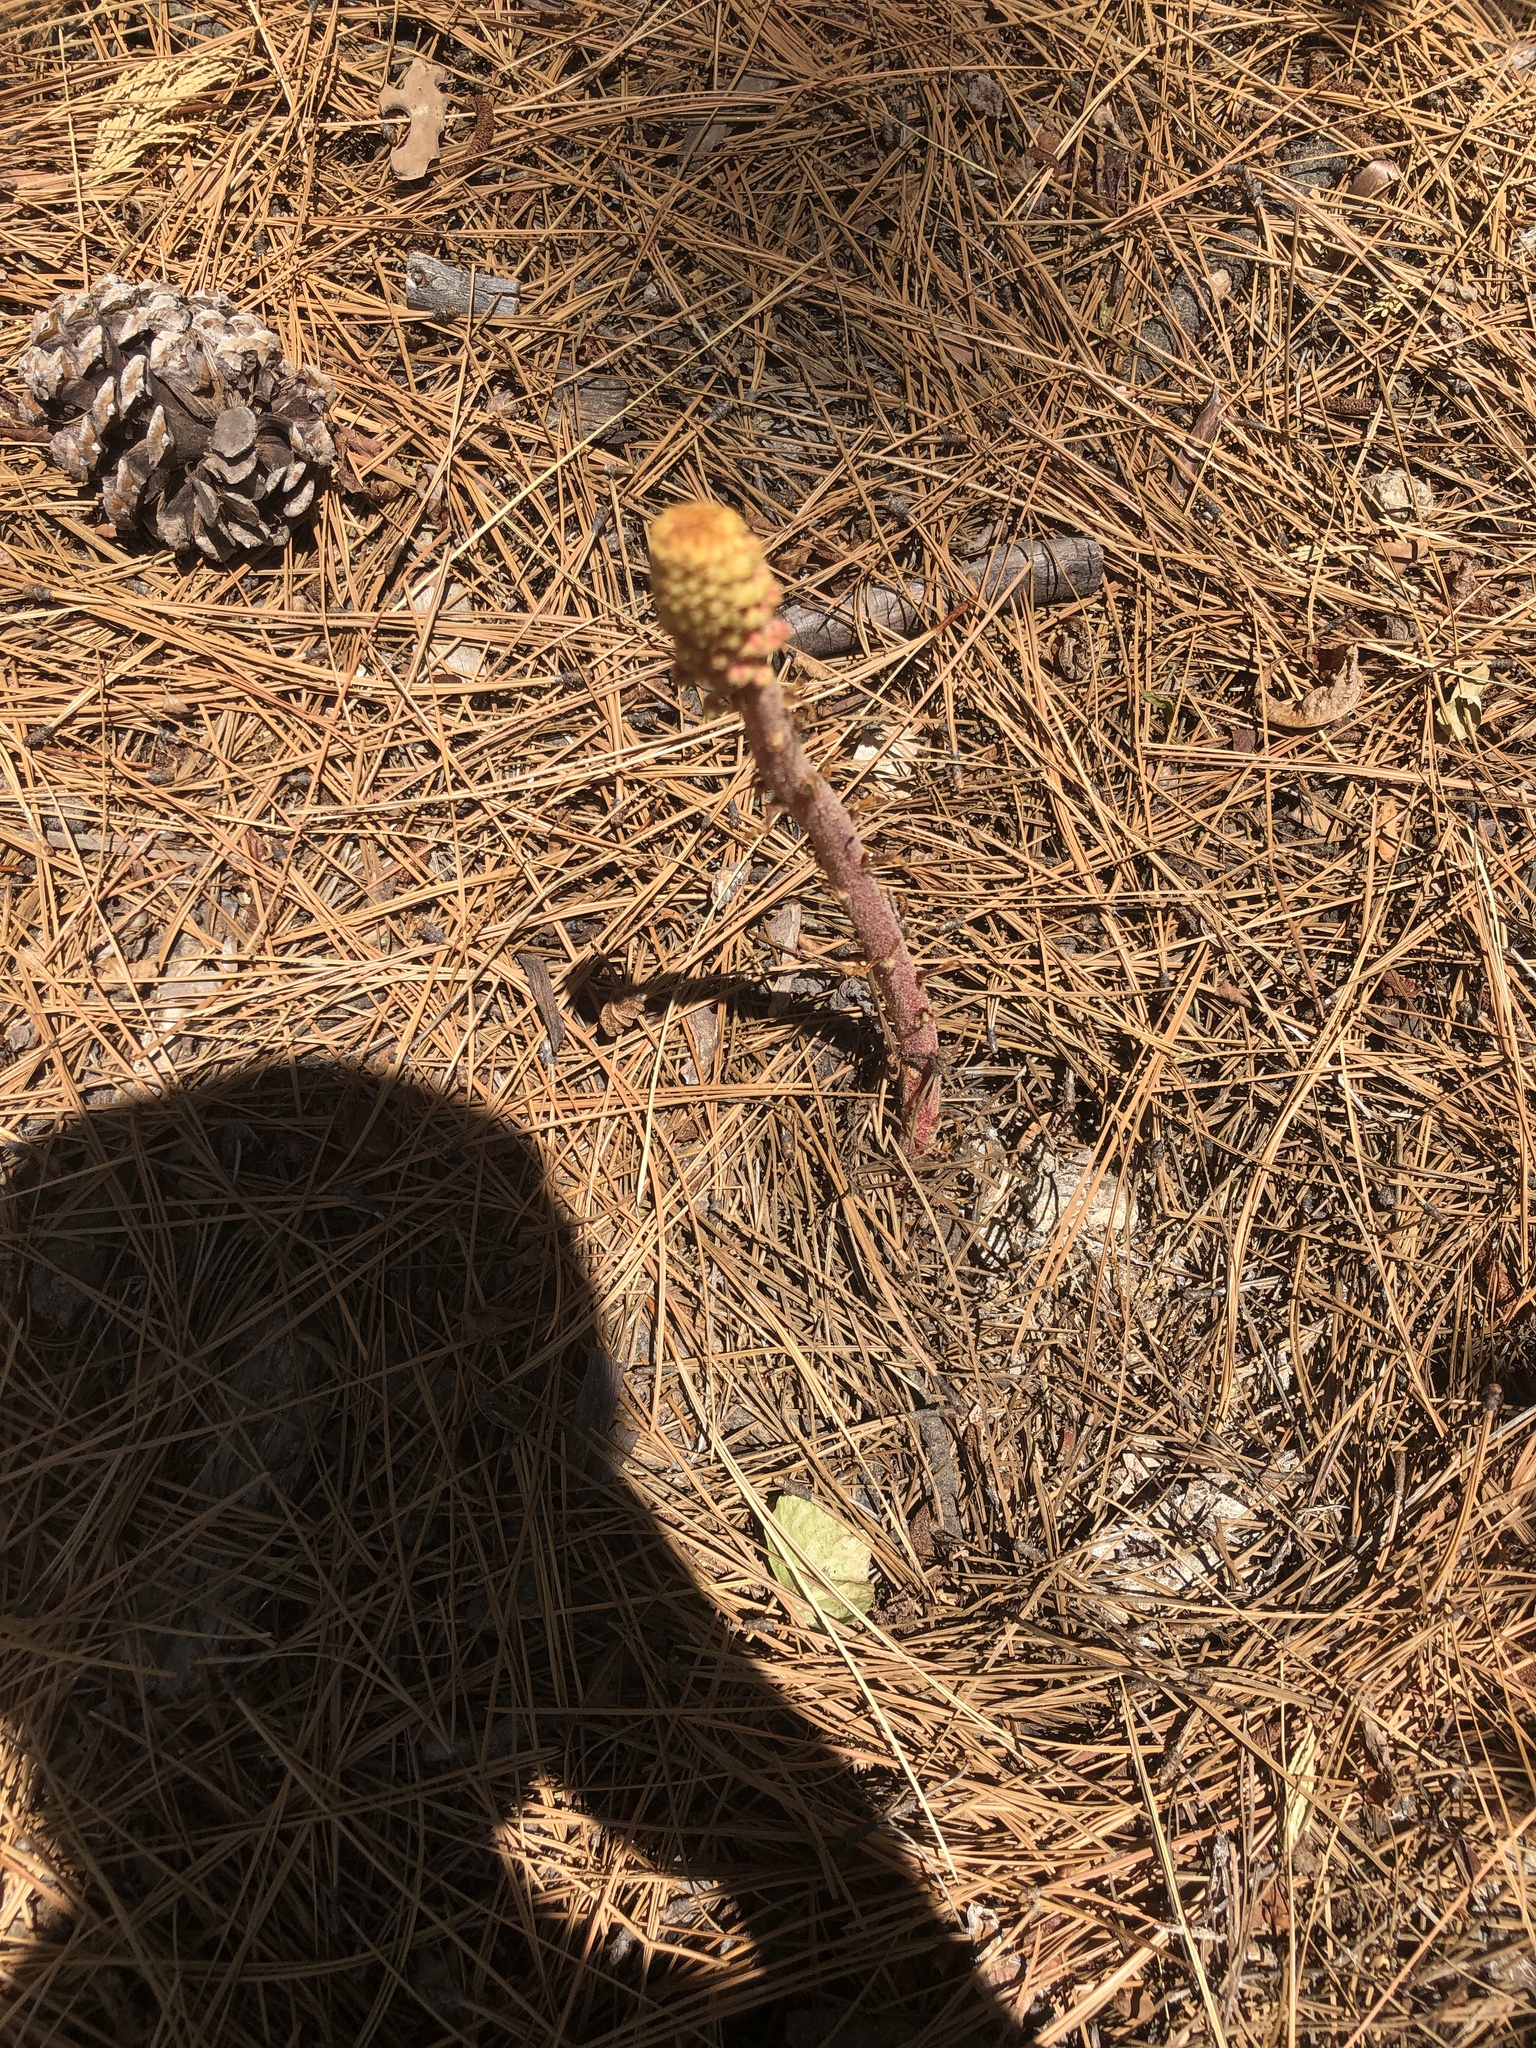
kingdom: Plantae
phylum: Tracheophyta
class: Magnoliopsida
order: Ericales
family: Ericaceae
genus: Pterospora
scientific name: Pterospora andromedea
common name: Giant bird's-nest
